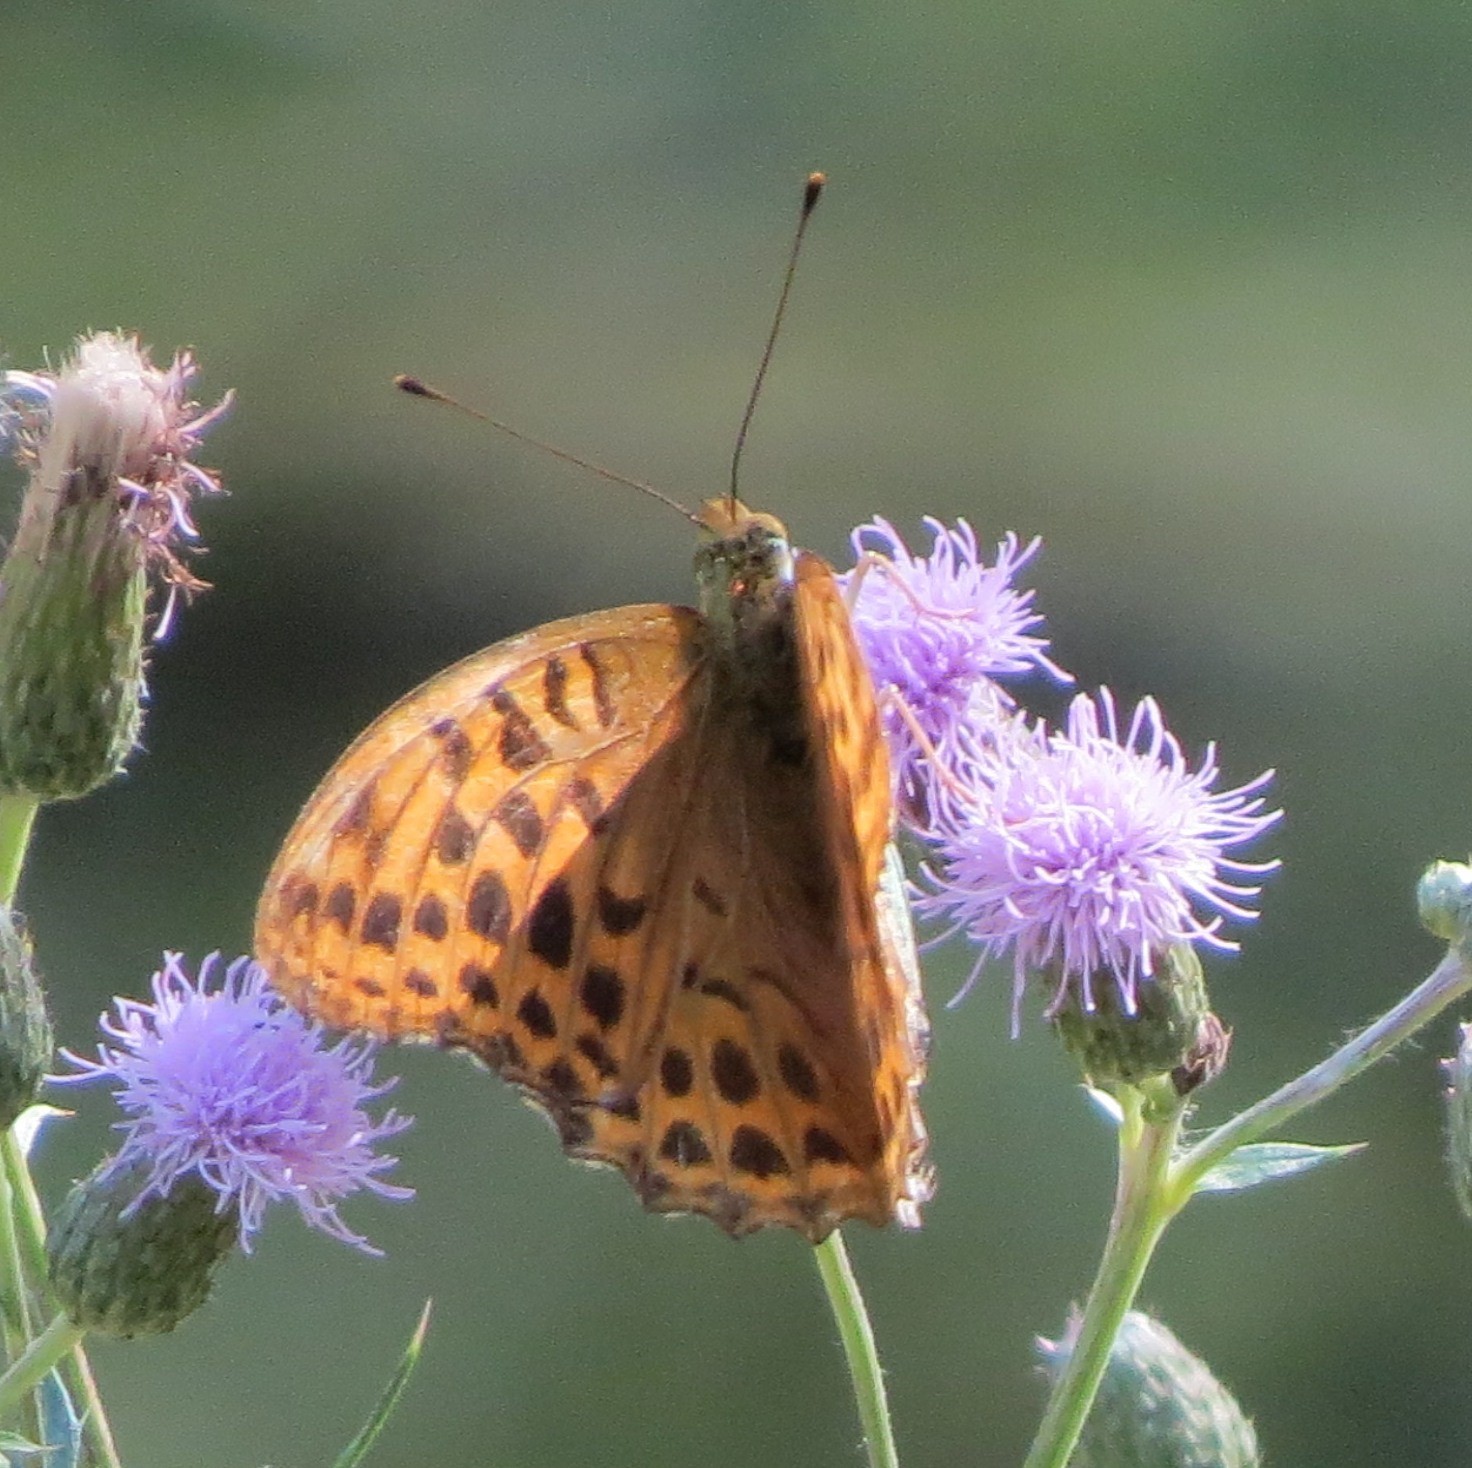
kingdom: Animalia
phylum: Arthropoda
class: Insecta
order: Lepidoptera
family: Nymphalidae
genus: Argynnis
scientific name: Argynnis paphia
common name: Silver-washed fritillary
